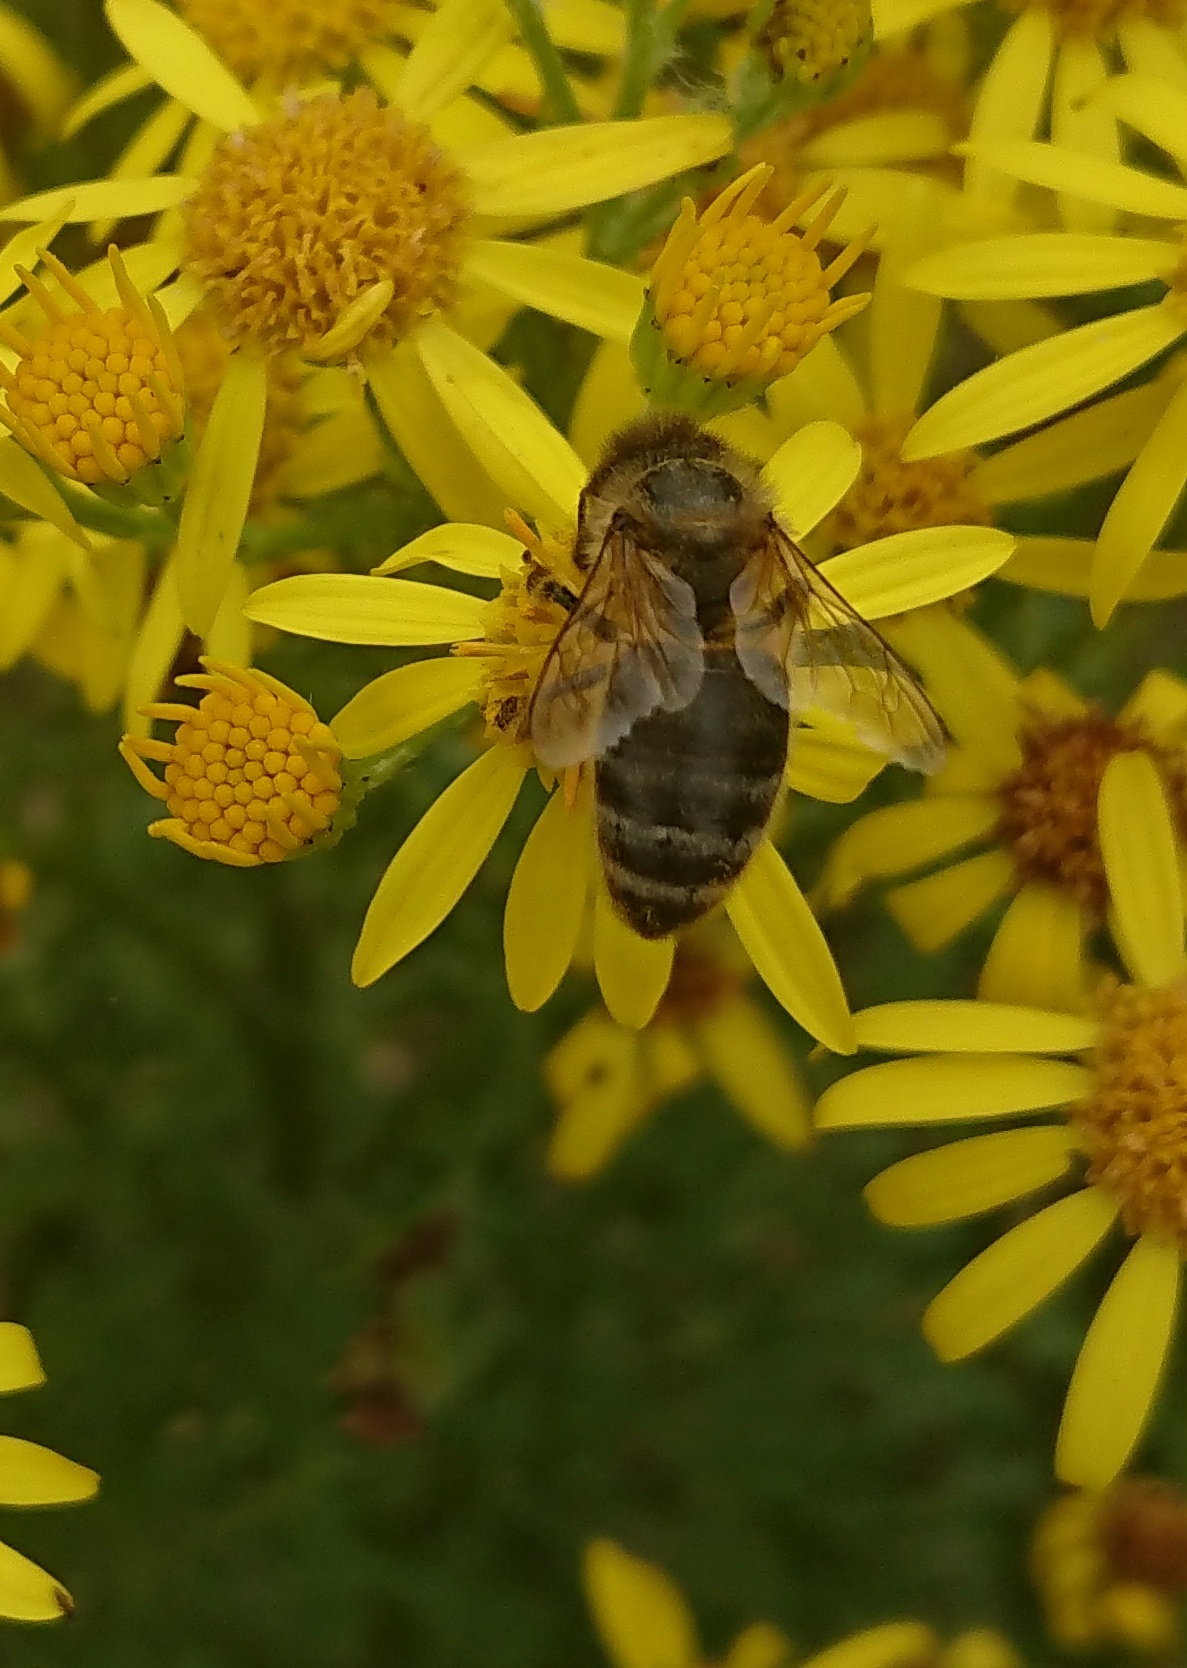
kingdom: Animalia
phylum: Arthropoda
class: Insecta
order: Hymenoptera
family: Apidae
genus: Apis
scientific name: Apis mellifera
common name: Honey bee
